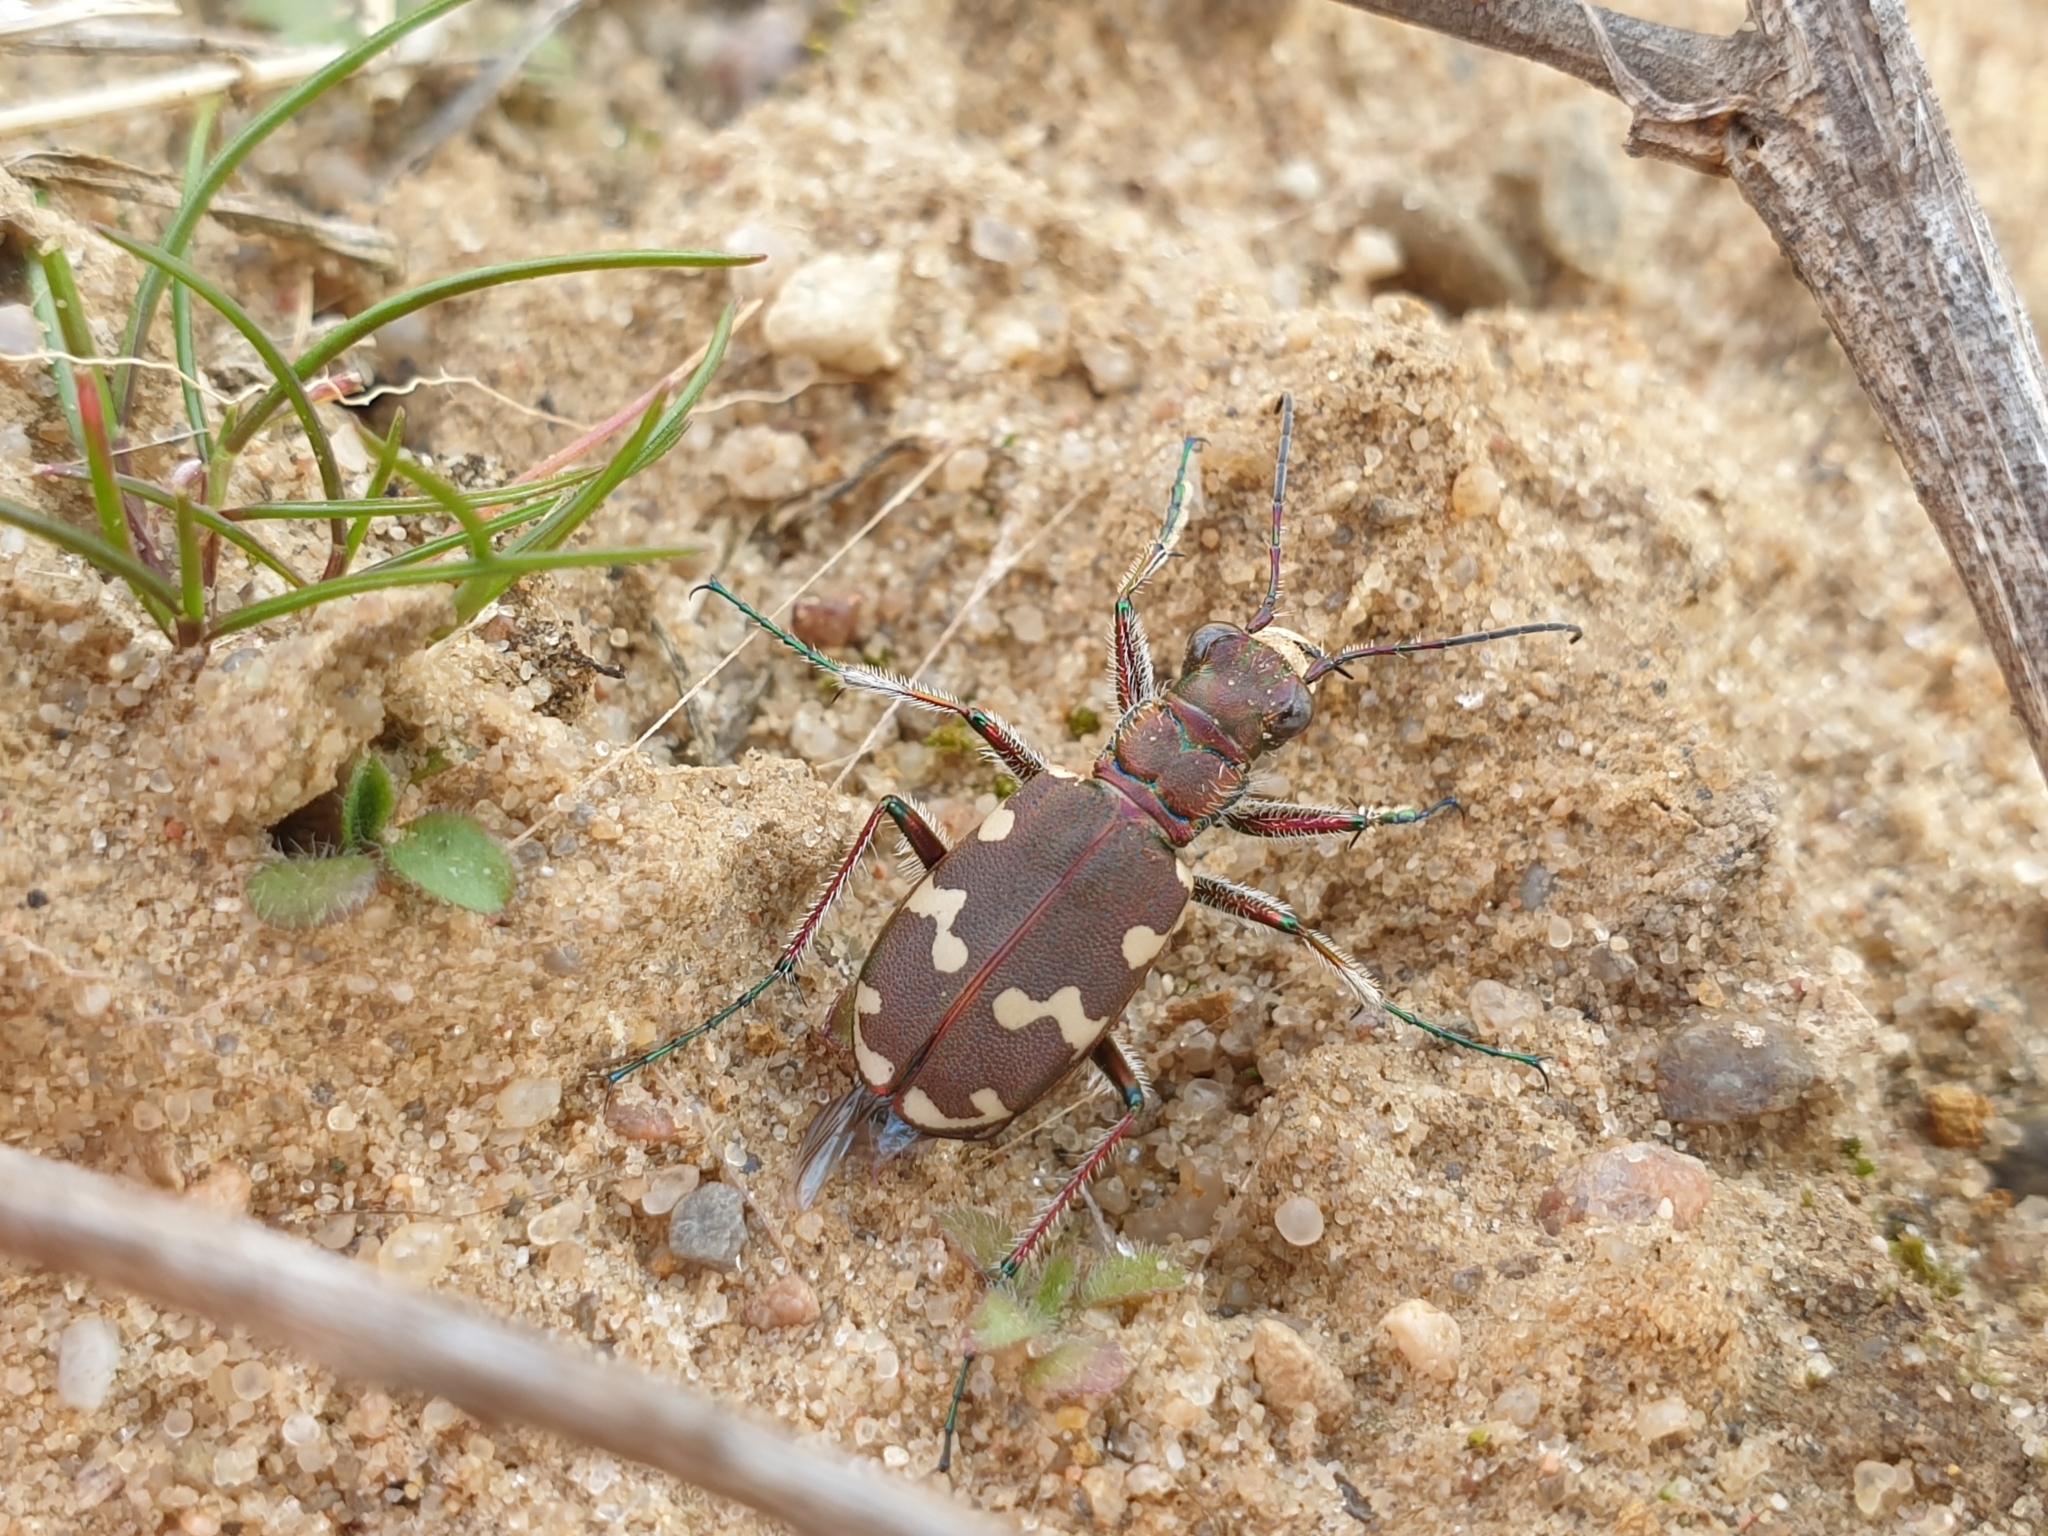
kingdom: Animalia
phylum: Arthropoda
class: Insecta
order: Coleoptera
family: Carabidae
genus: Cicindela
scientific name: Cicindela hybrida
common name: Northern dune tiger beetle
